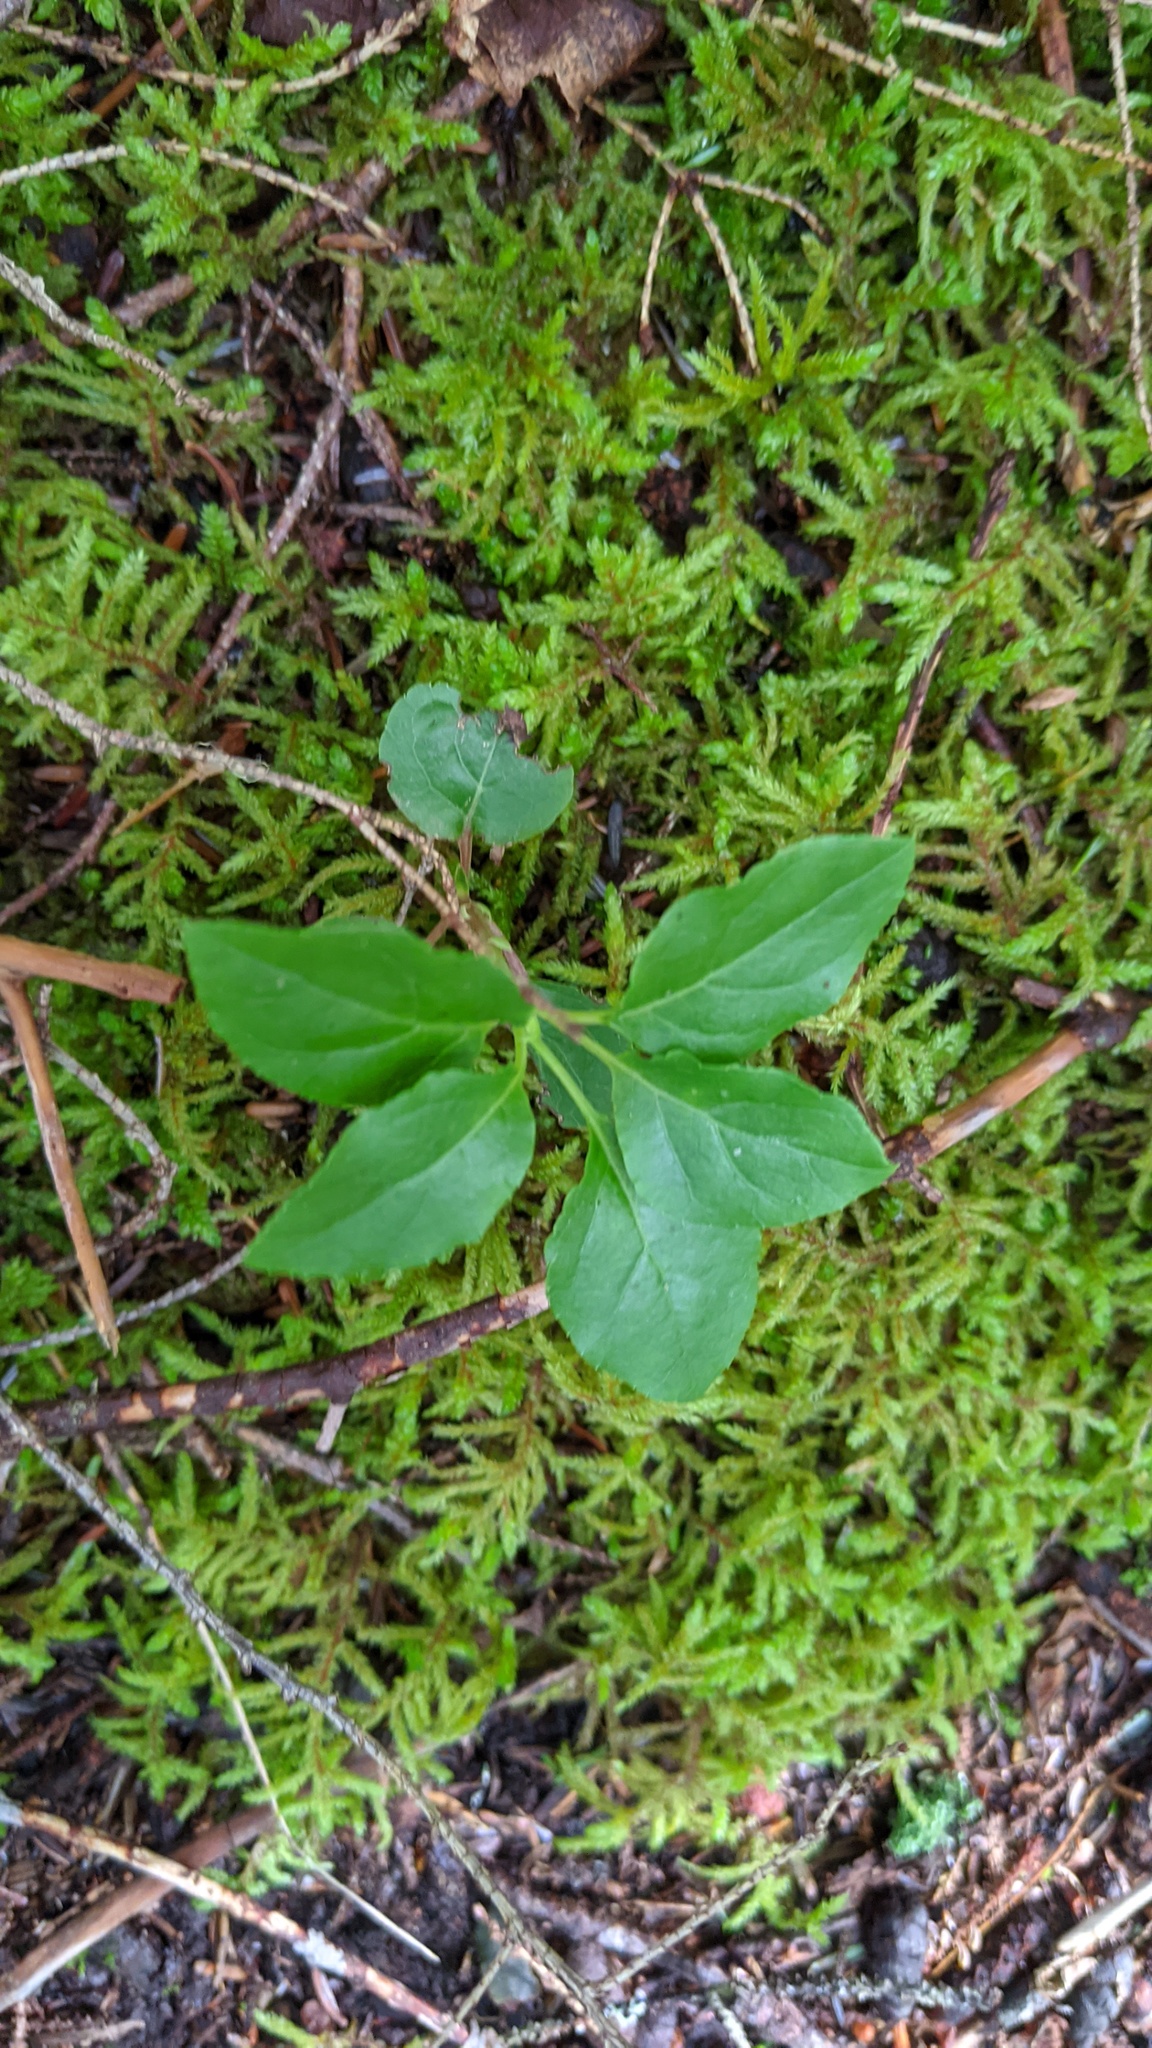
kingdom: Plantae
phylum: Tracheophyta
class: Magnoliopsida
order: Ericales
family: Ericaceae
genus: Orthilia
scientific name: Orthilia secunda
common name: One-sided orthilia
